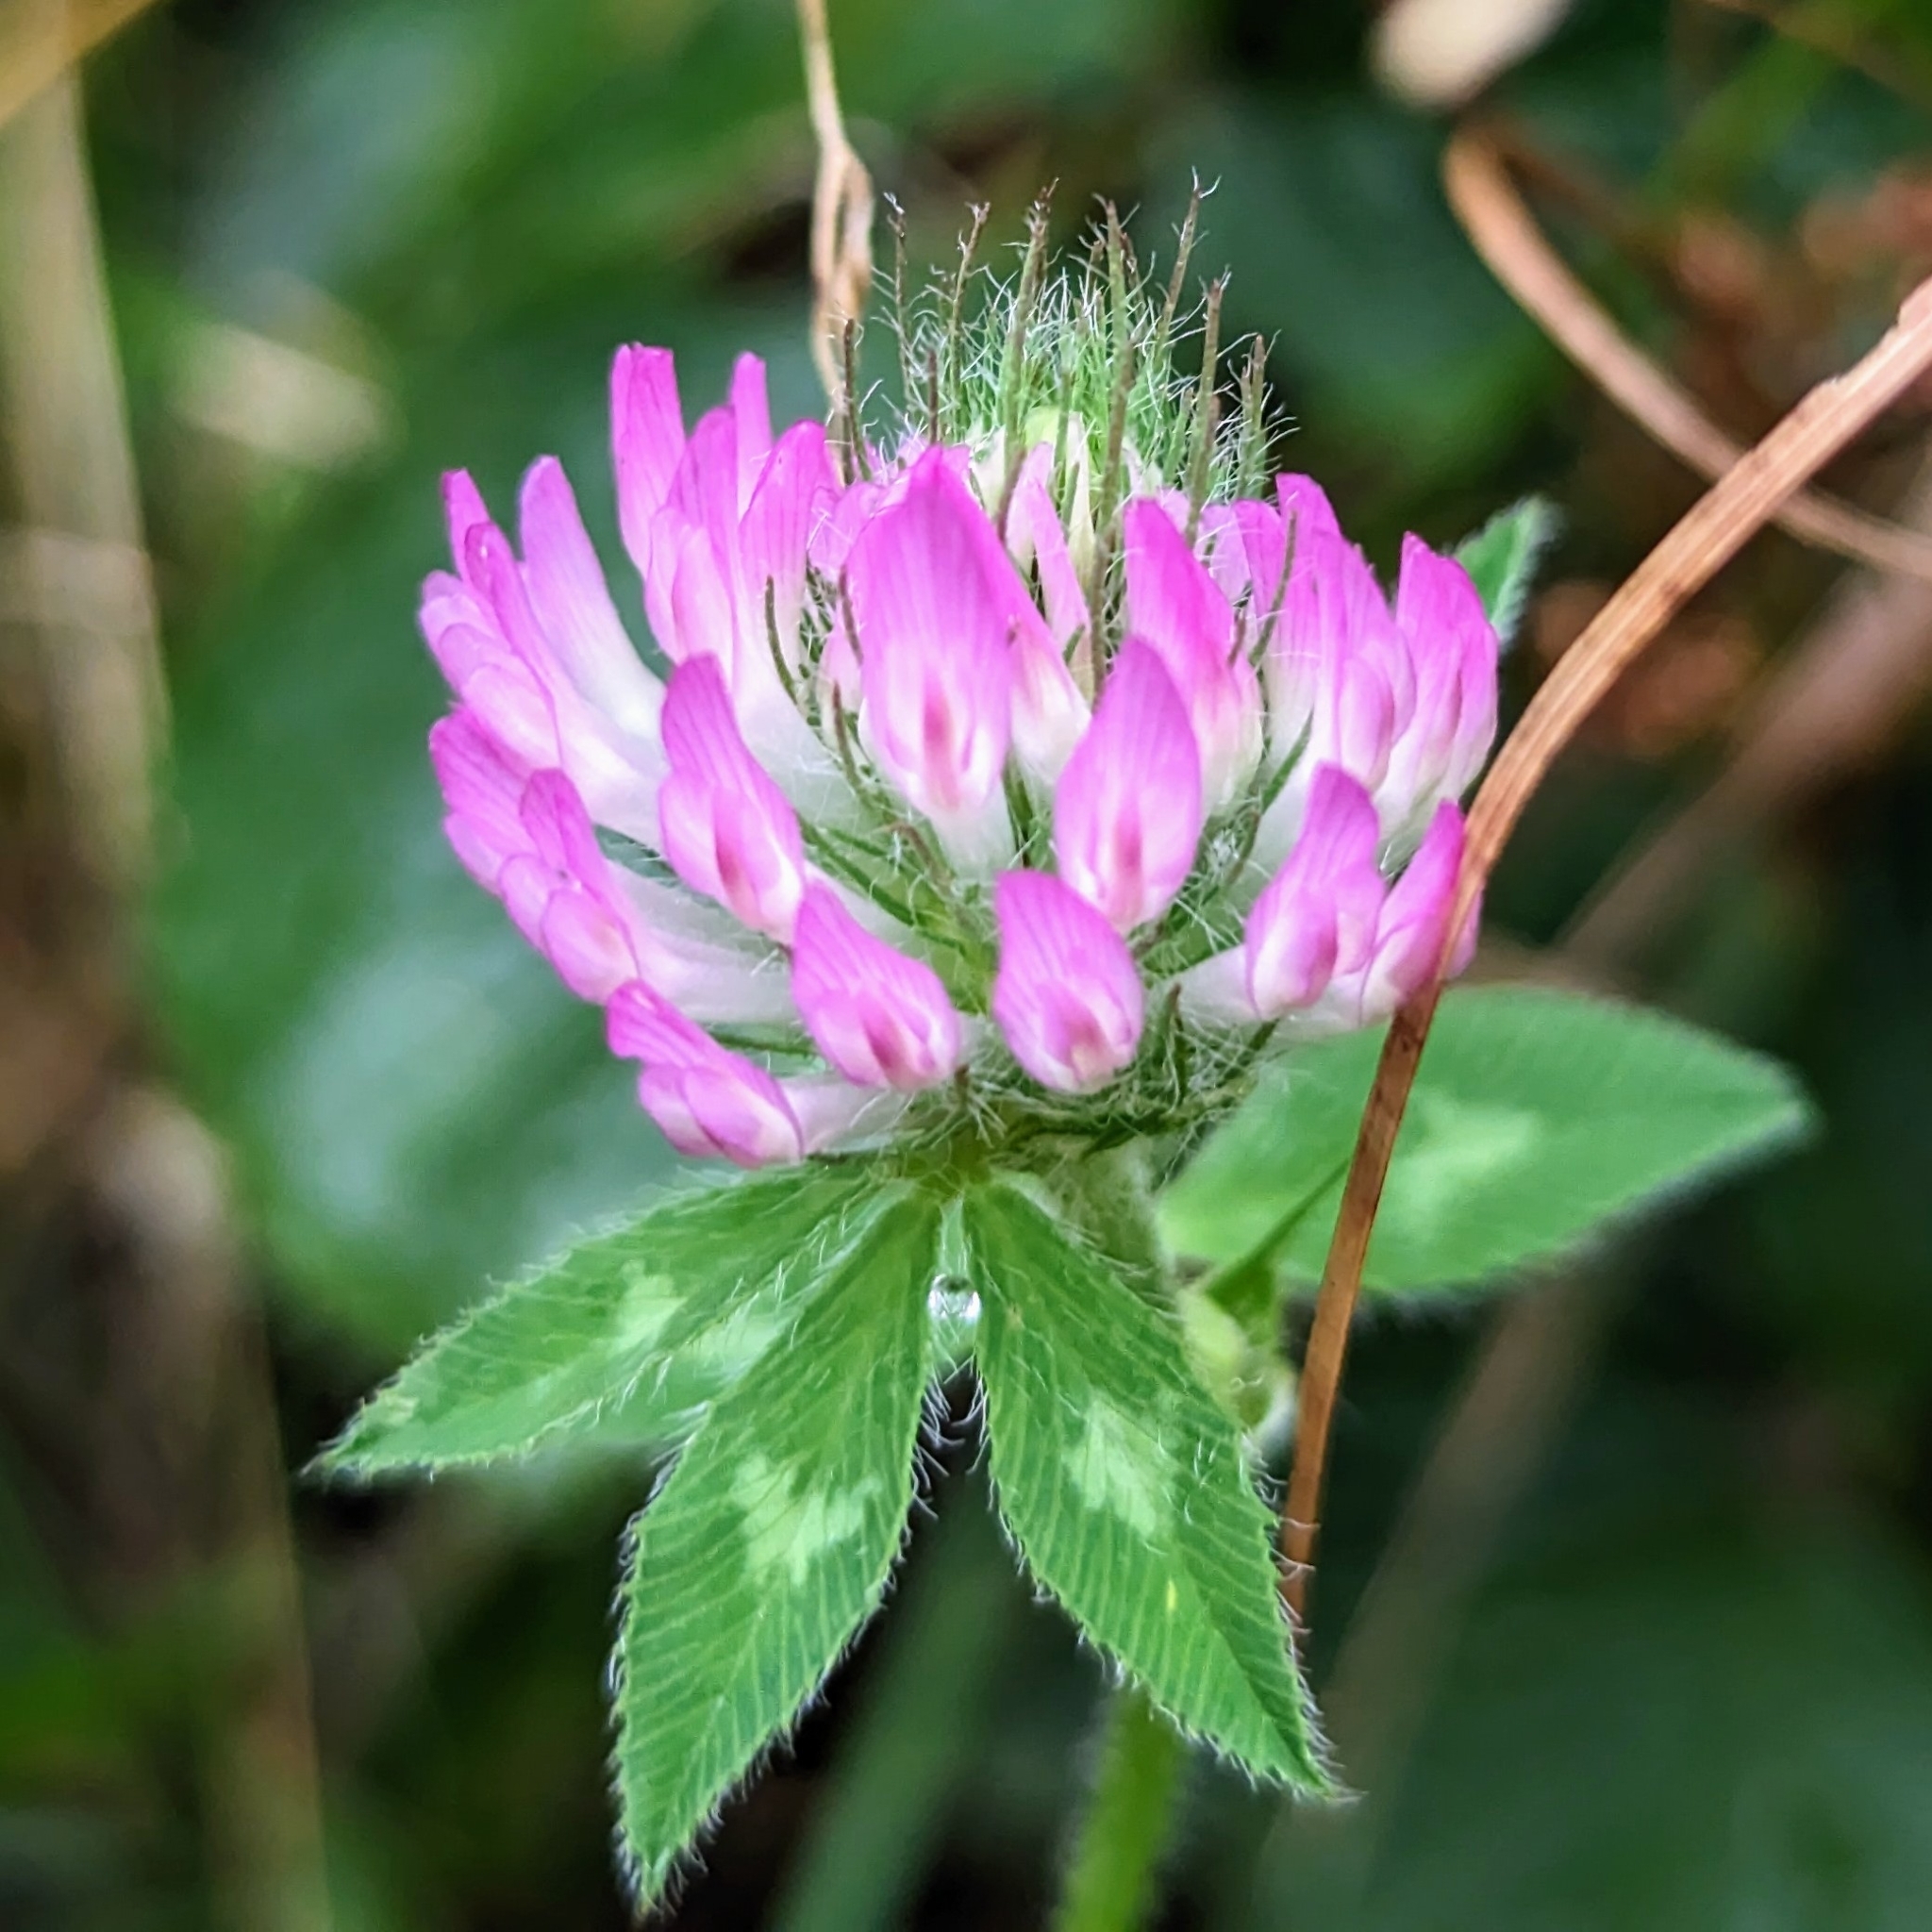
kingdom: Plantae
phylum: Tracheophyta
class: Magnoliopsida
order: Fabales
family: Fabaceae
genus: Trifolium
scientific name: Trifolium pratense
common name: Red clover
